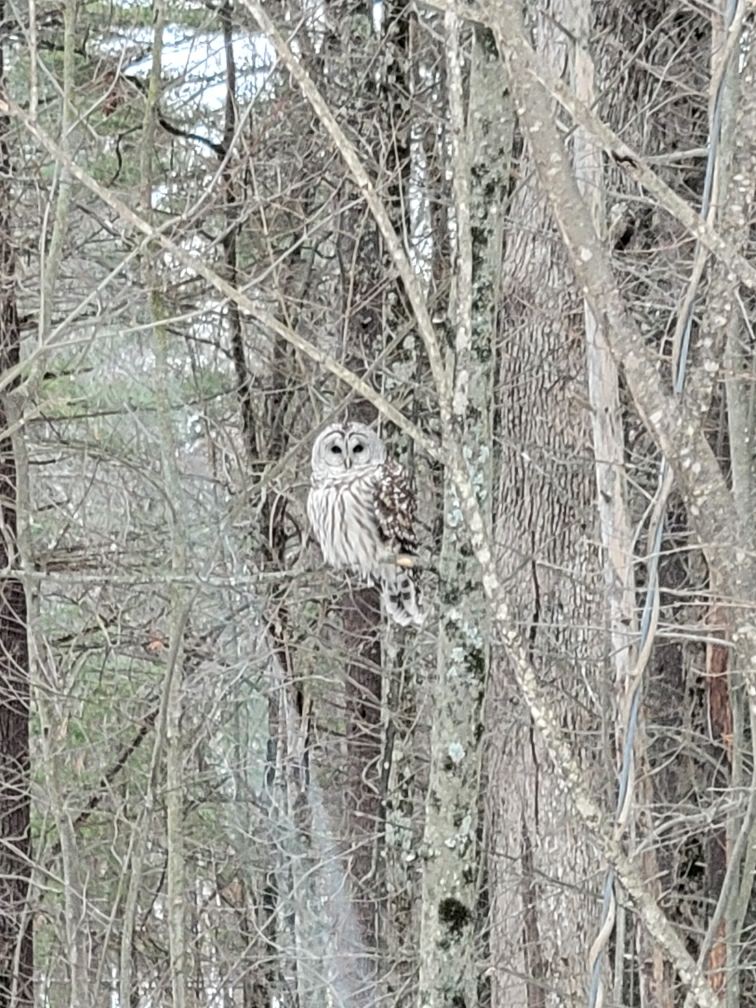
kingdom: Animalia
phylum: Chordata
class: Aves
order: Strigiformes
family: Strigidae
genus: Strix
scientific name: Strix varia
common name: Barred owl
